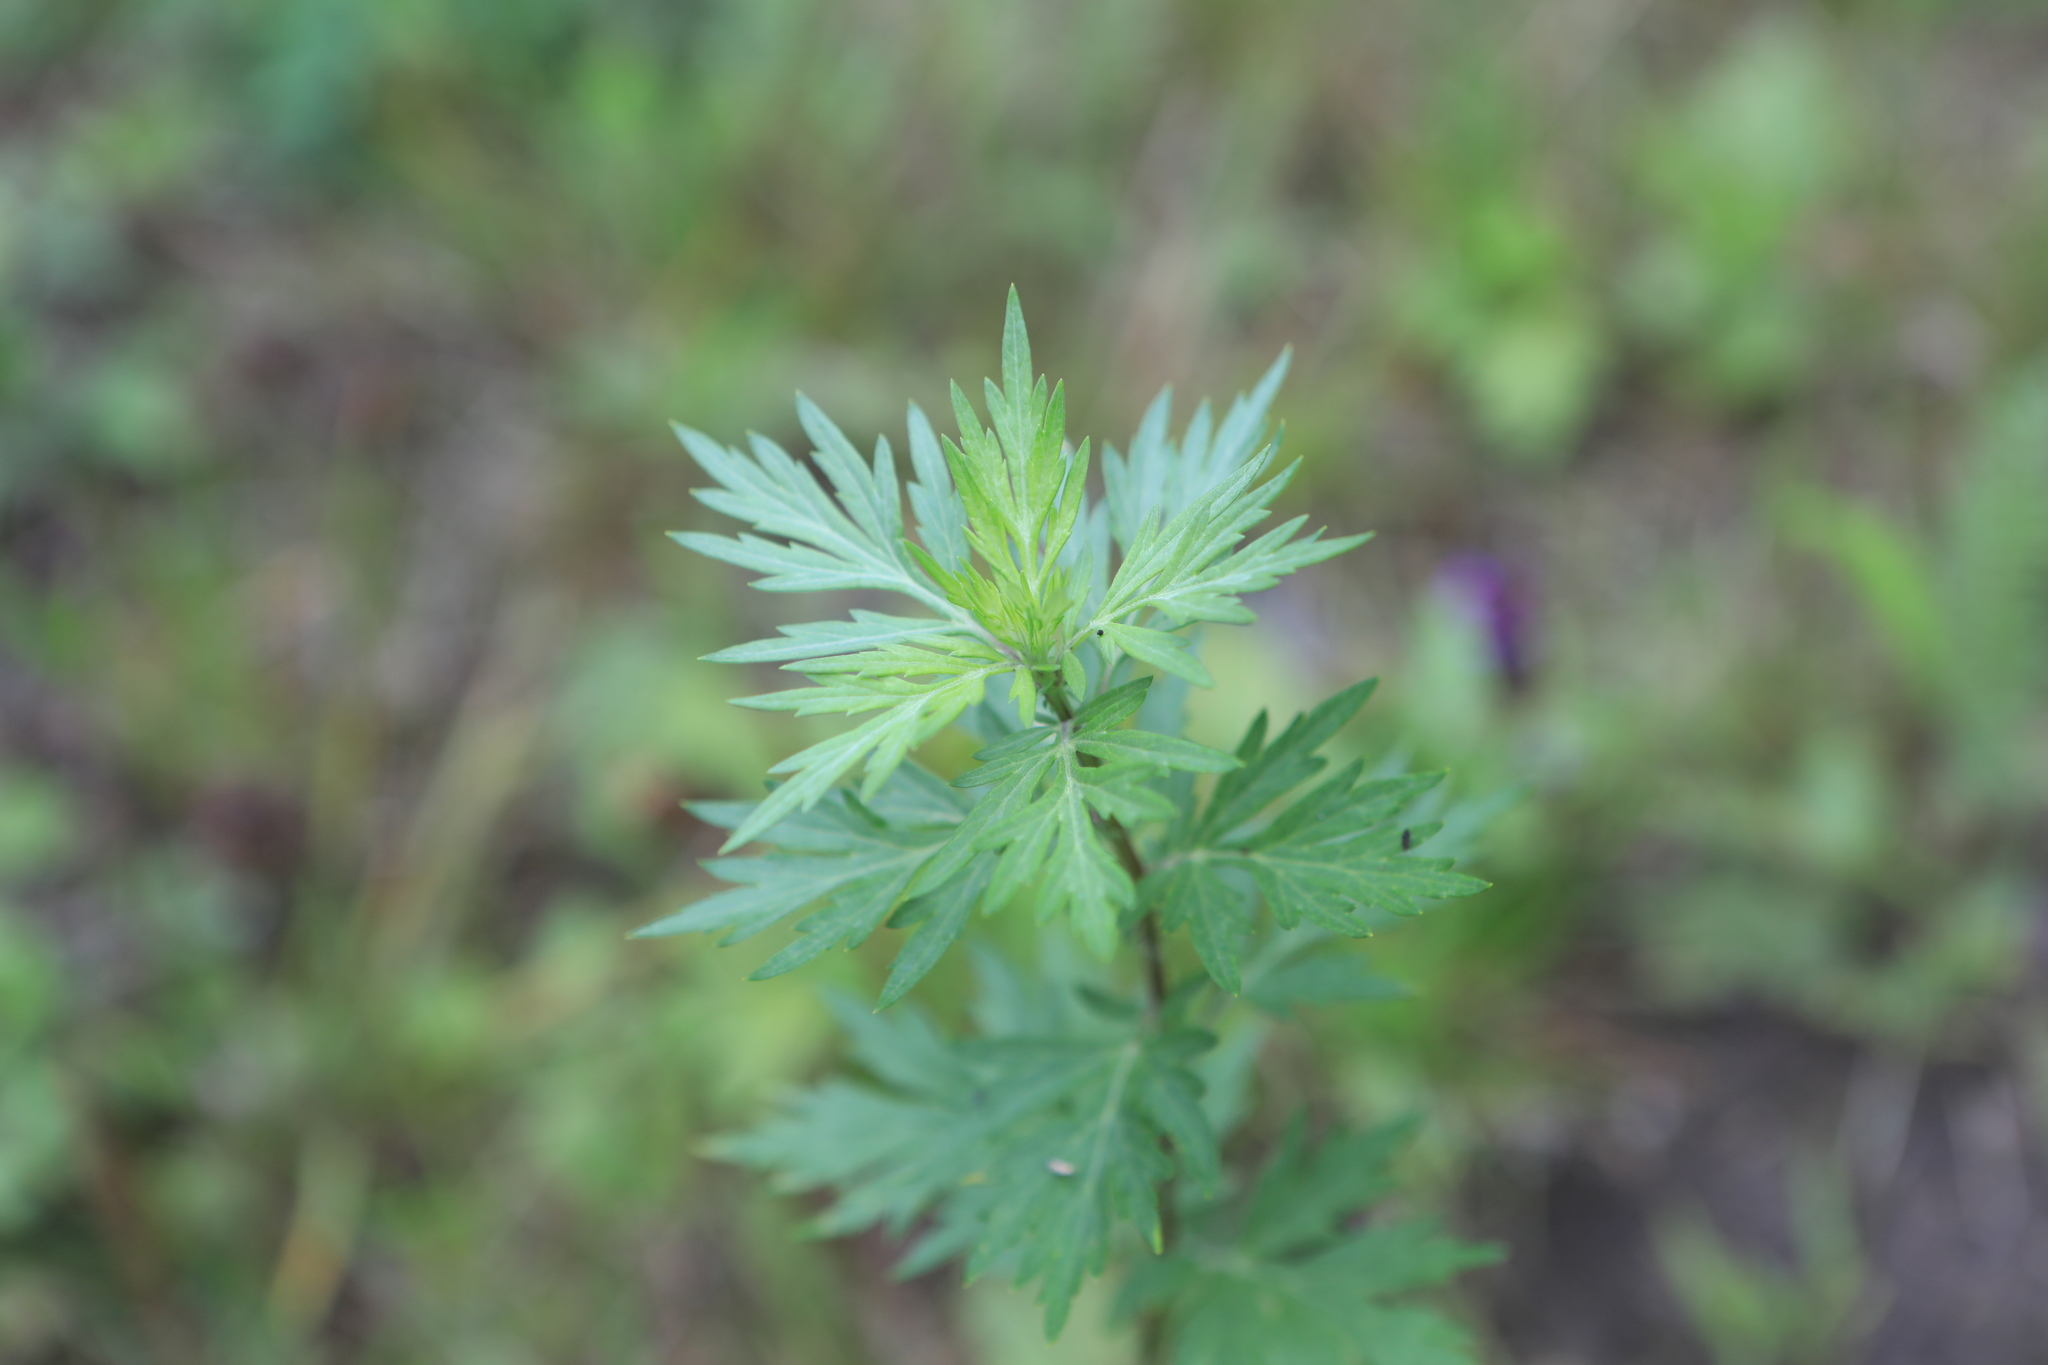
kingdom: Plantae
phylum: Tracheophyta
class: Magnoliopsida
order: Asterales
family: Asteraceae
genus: Artemisia
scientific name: Artemisia vulgaris
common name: Mugwort
